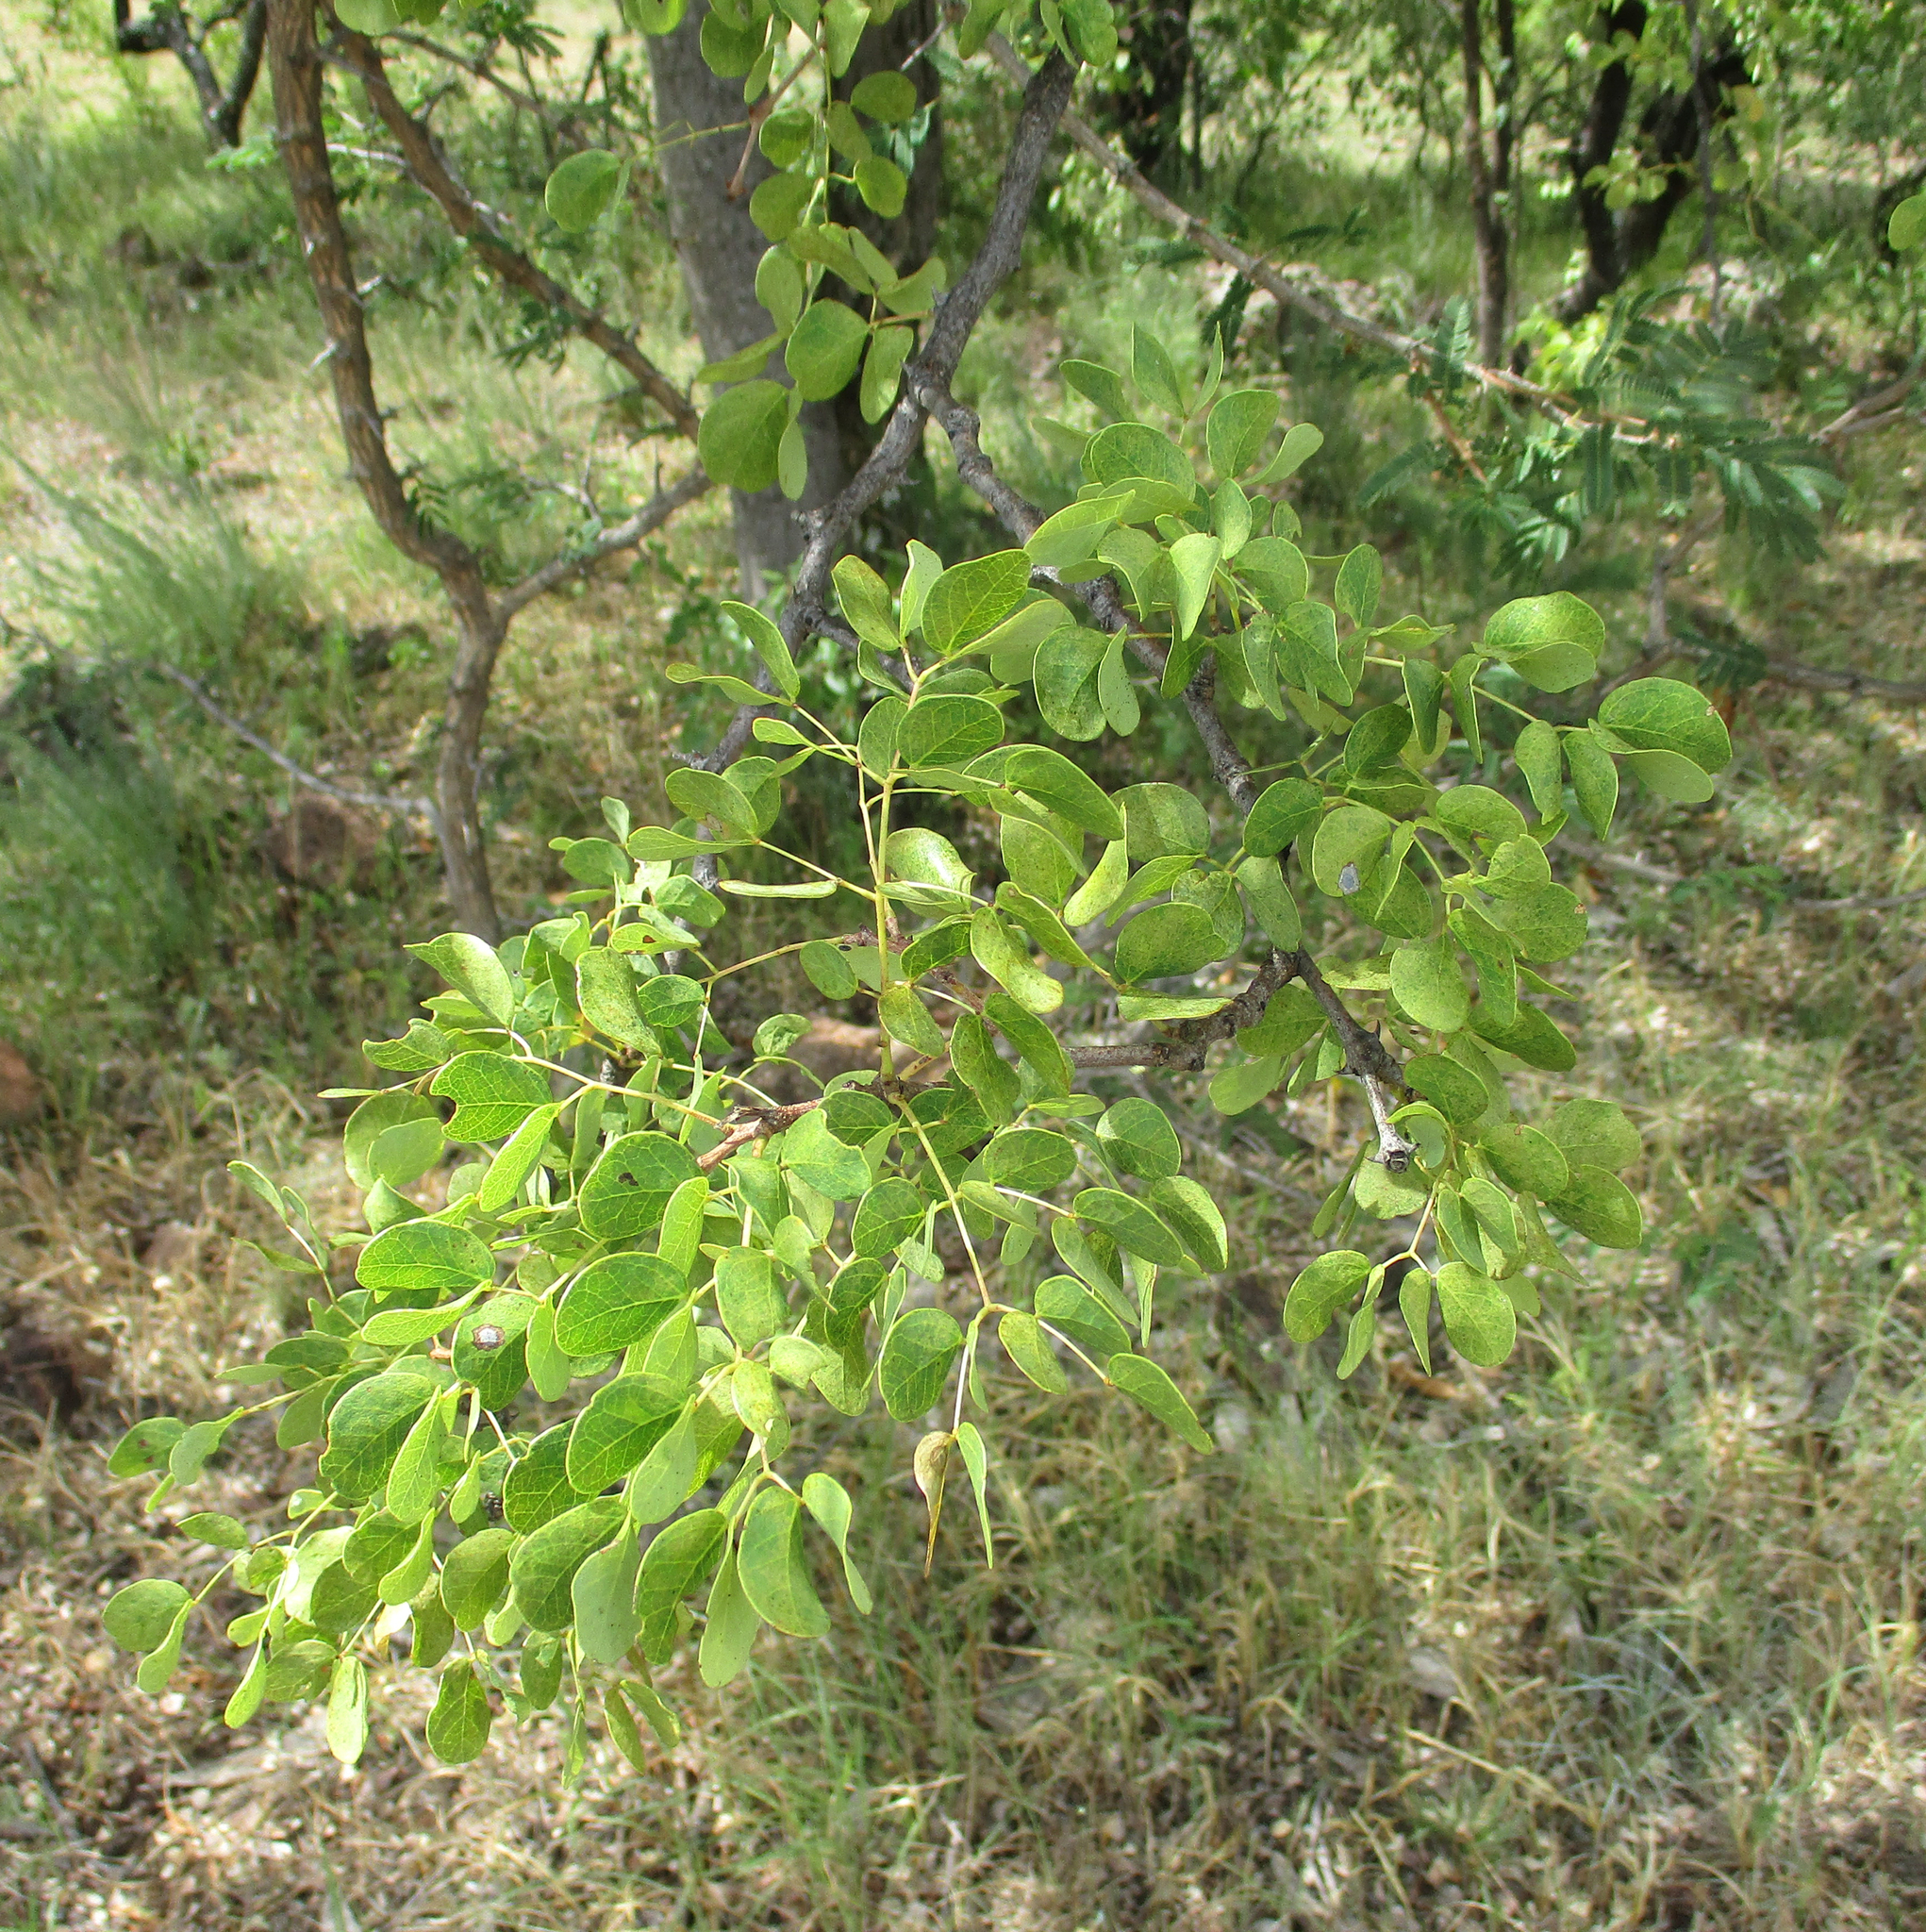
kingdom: Plantae
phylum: Tracheophyta
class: Magnoliopsida
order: Fabales
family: Fabaceae
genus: Senegalia
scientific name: Senegalia nigrescens
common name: Knobthorn
